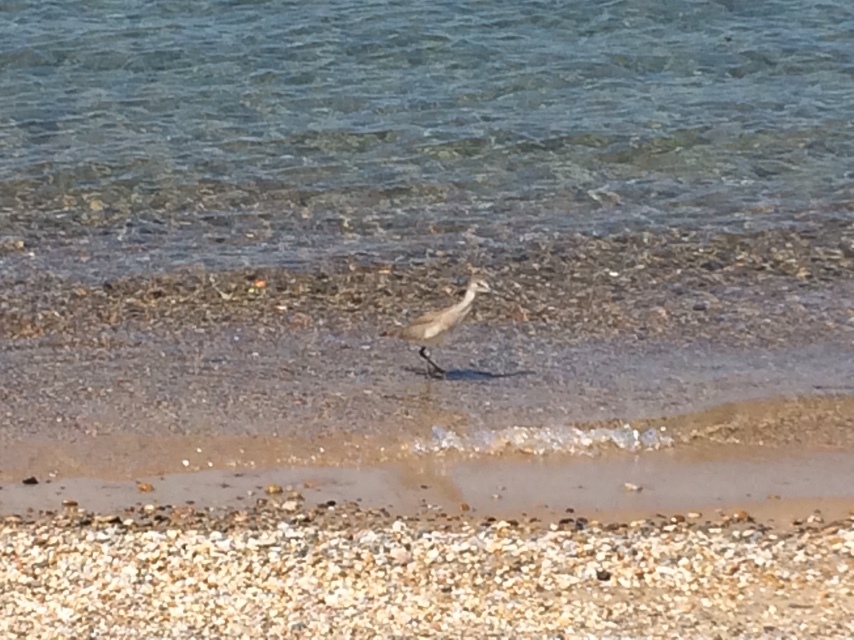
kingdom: Animalia
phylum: Chordata
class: Aves
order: Charadriiformes
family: Scolopacidae
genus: Tringa
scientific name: Tringa semipalmata
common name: Willet
